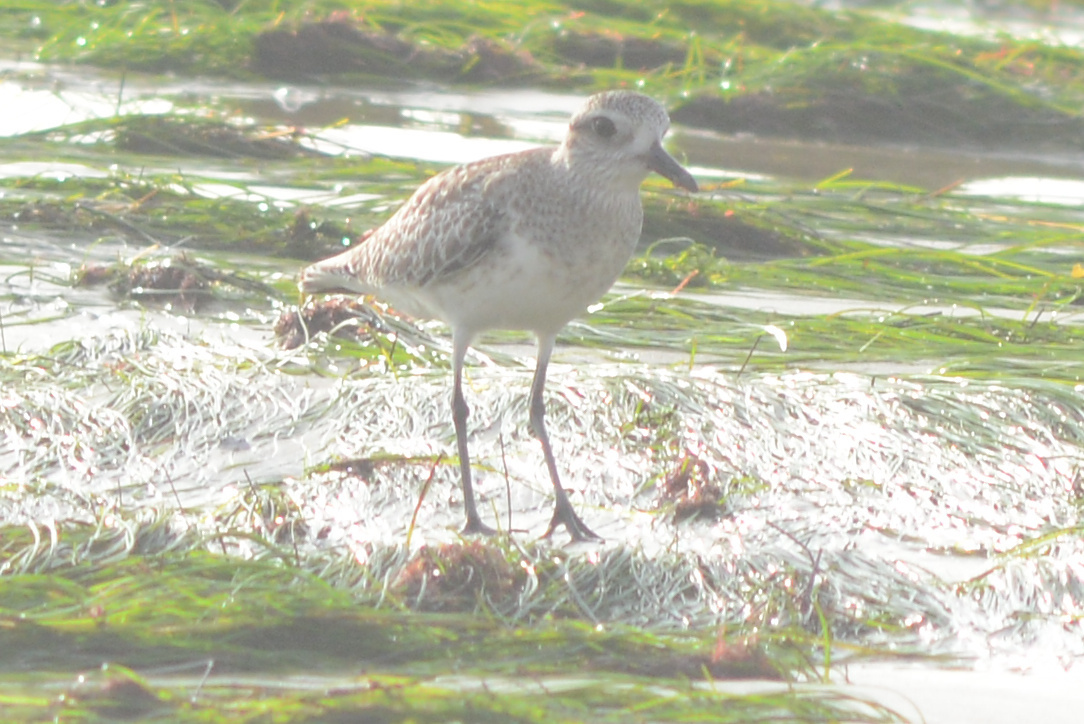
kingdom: Animalia
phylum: Chordata
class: Aves
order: Charadriiformes
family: Charadriidae
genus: Pluvialis
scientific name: Pluvialis squatarola
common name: Grey plover
